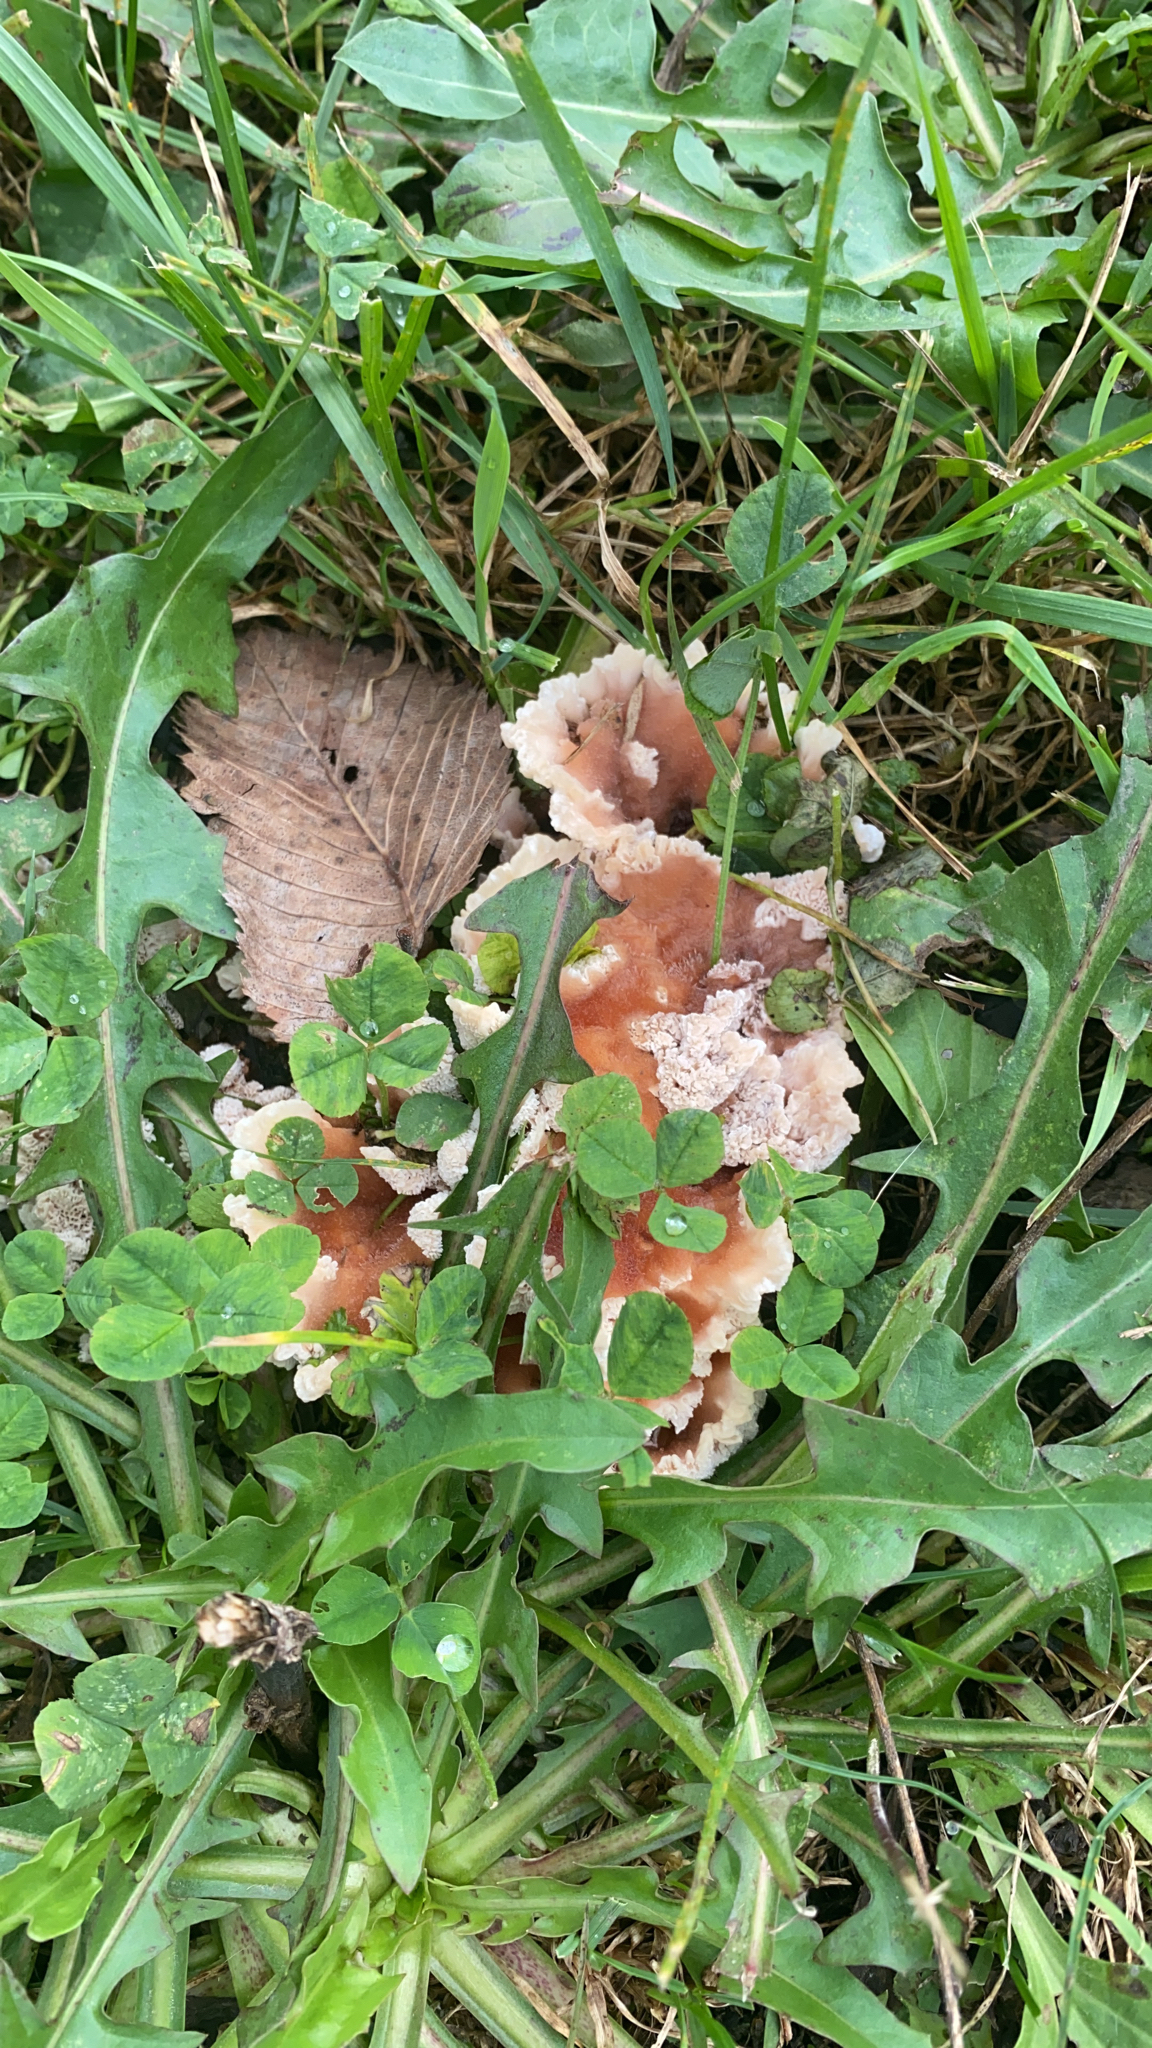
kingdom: Fungi
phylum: Basidiomycota
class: Agaricomycetes
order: Polyporales
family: Podoscyphaceae
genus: Abortiporus
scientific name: Abortiporus biennis
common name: Blushing rosette
